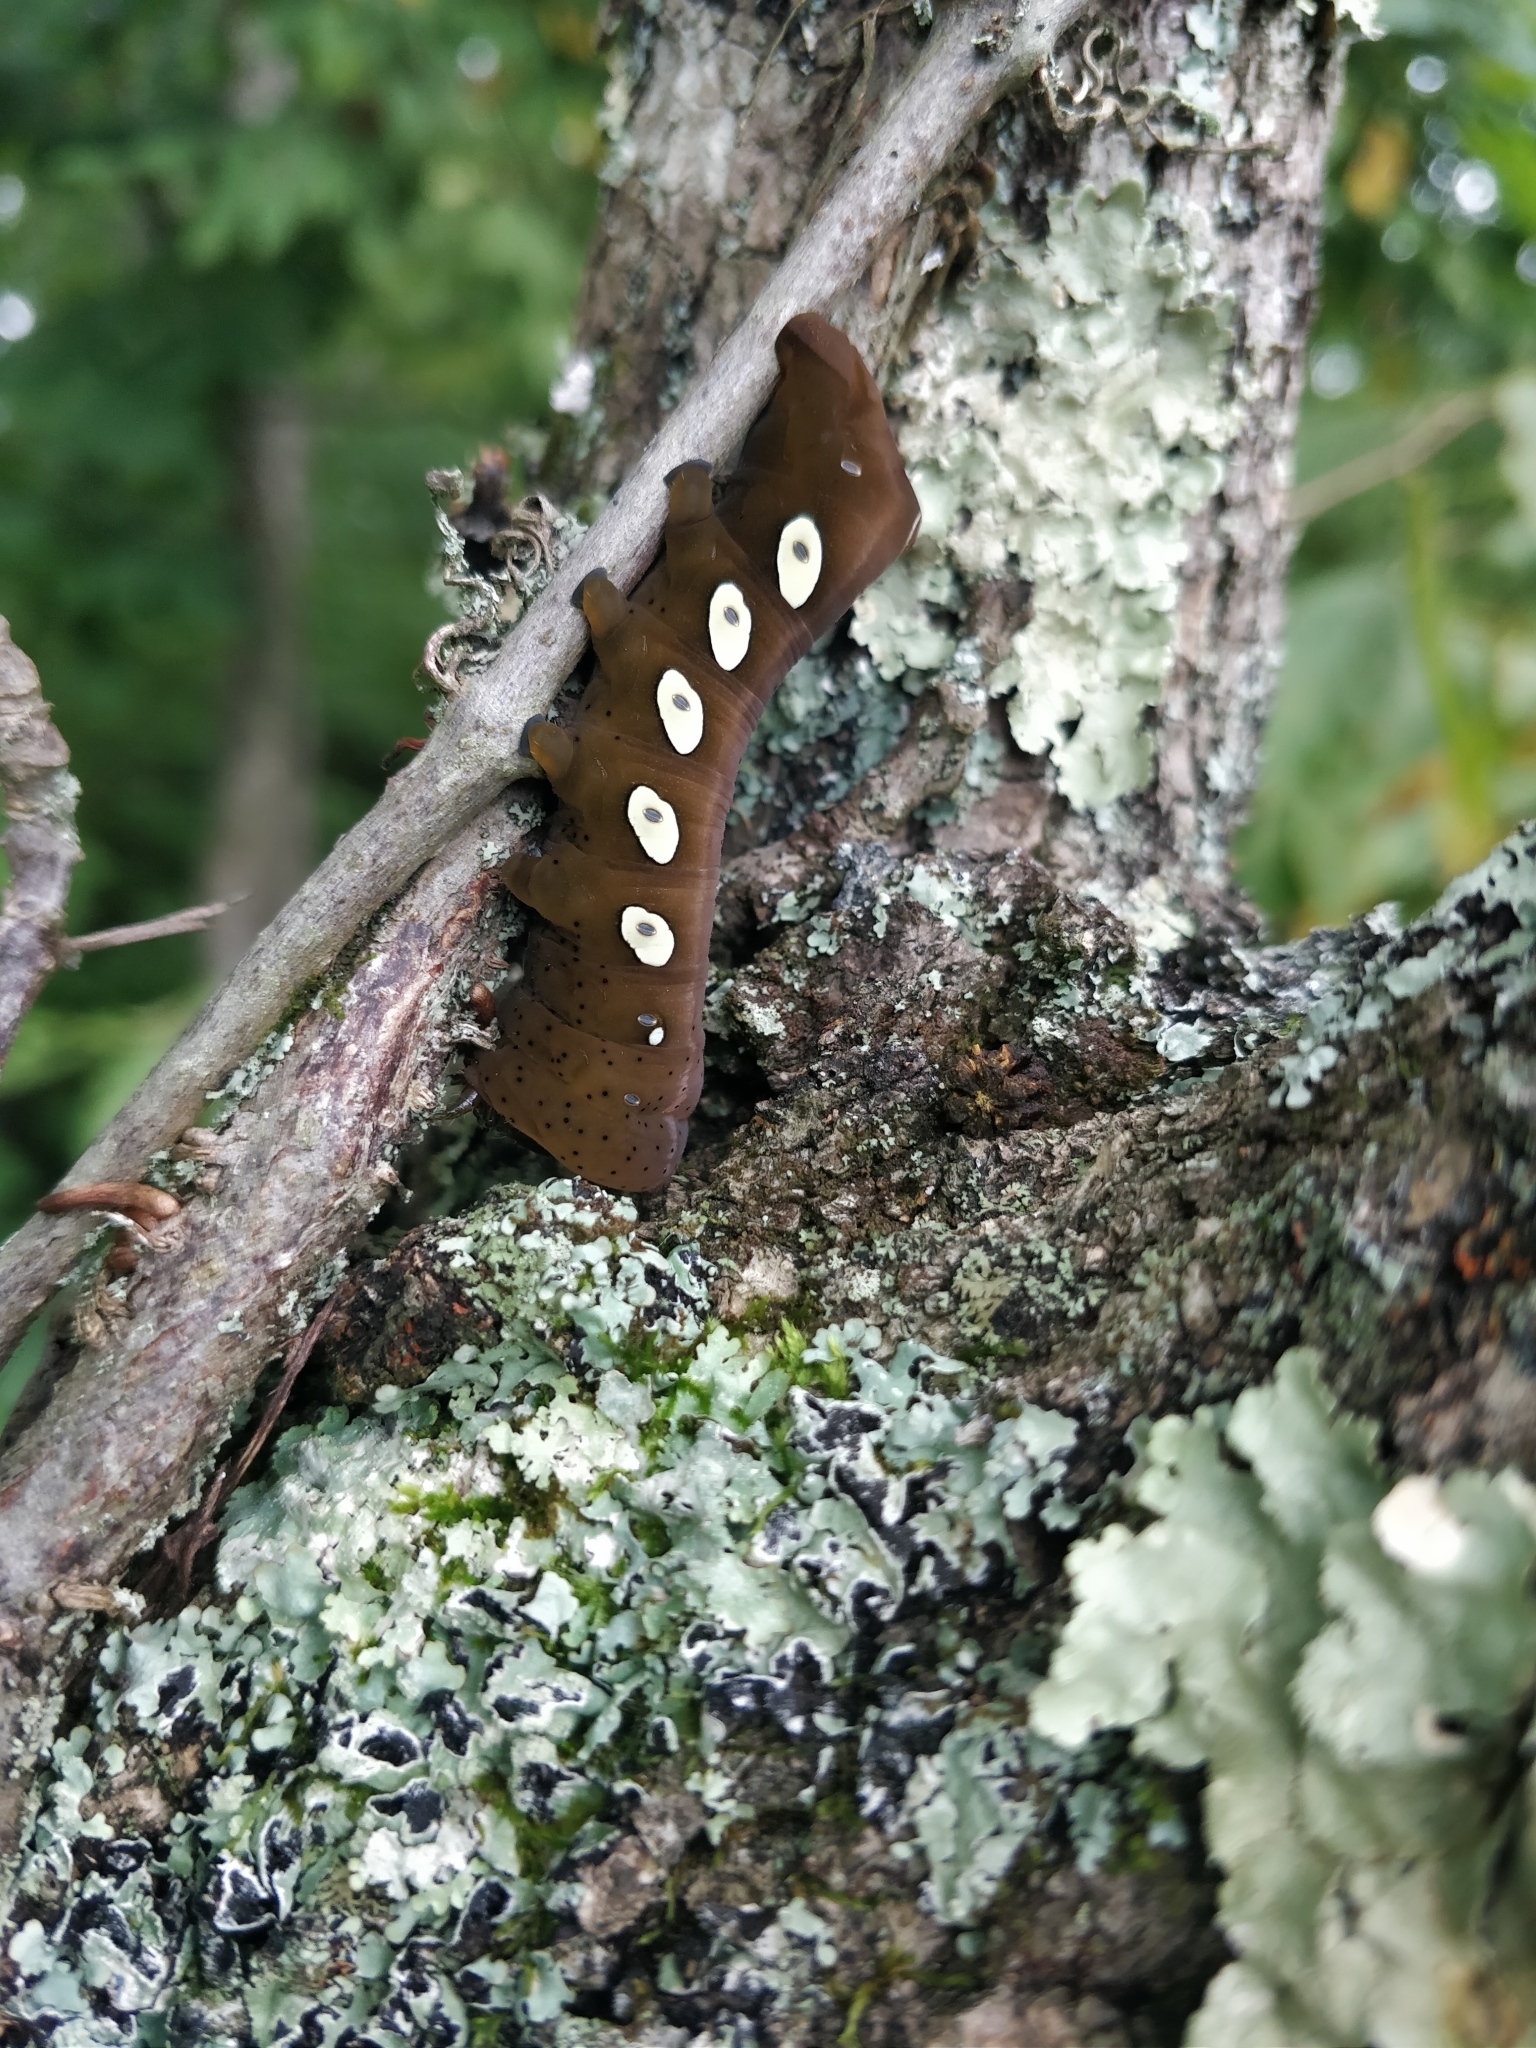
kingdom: Animalia
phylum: Arthropoda
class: Insecta
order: Lepidoptera
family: Sphingidae
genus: Eumorpha
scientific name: Eumorpha pandorus
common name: Pandora sphinx
